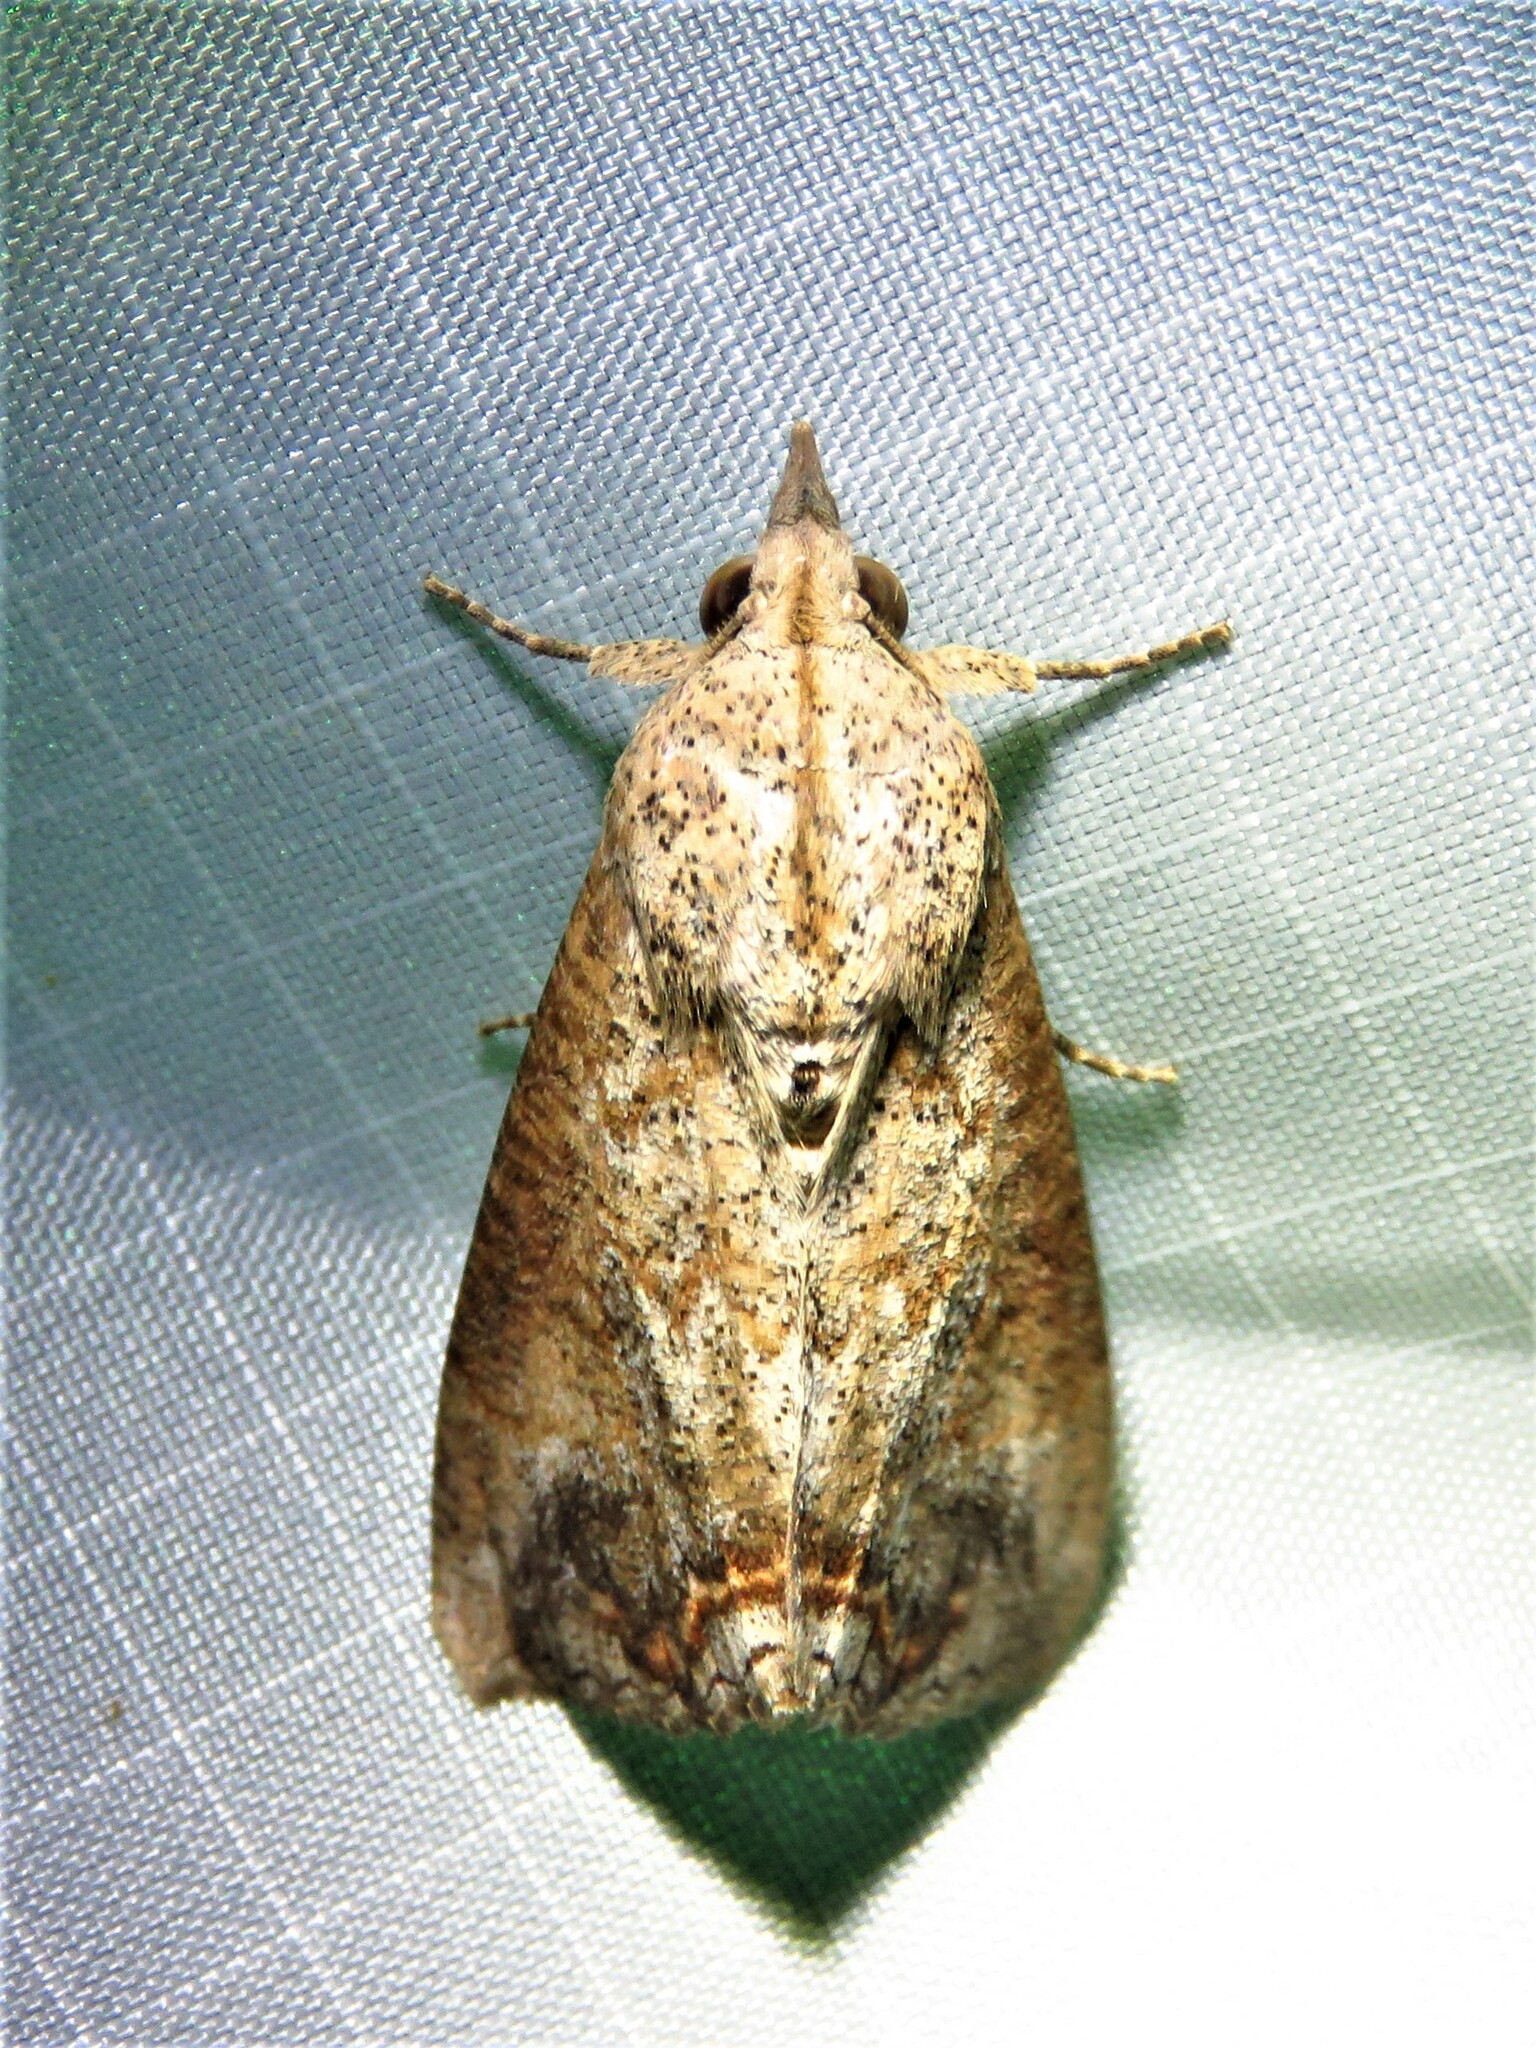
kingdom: Animalia
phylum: Arthropoda
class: Insecta
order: Lepidoptera
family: Erebidae
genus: Hypocala
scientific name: Hypocala andremona
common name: Hypocala moth
